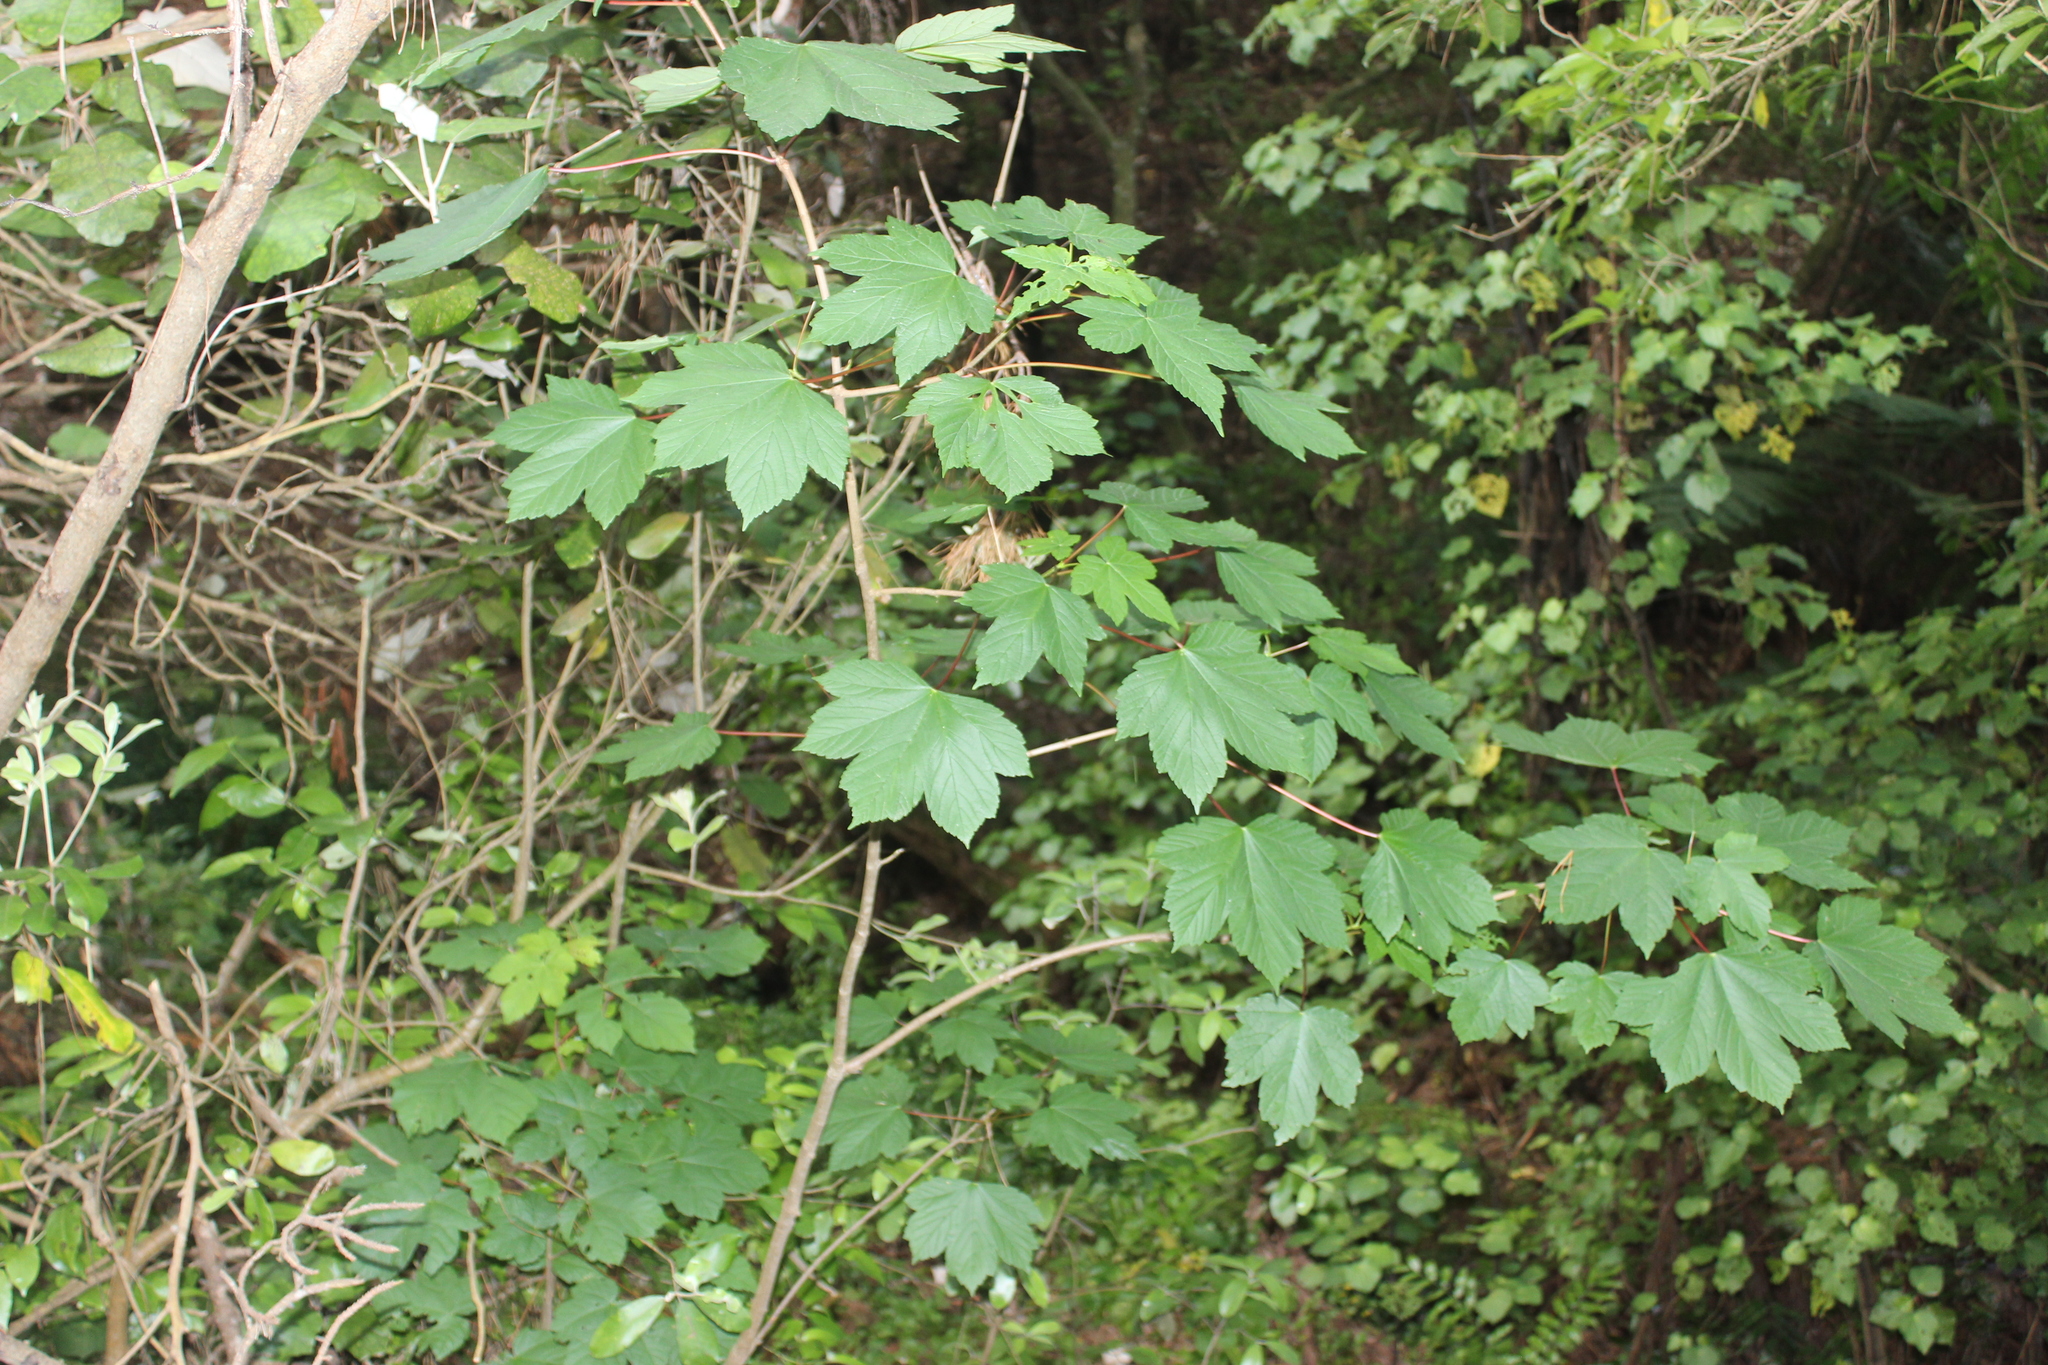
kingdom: Plantae
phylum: Tracheophyta
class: Magnoliopsida
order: Sapindales
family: Sapindaceae
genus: Acer
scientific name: Acer pseudoplatanus
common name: Sycamore
